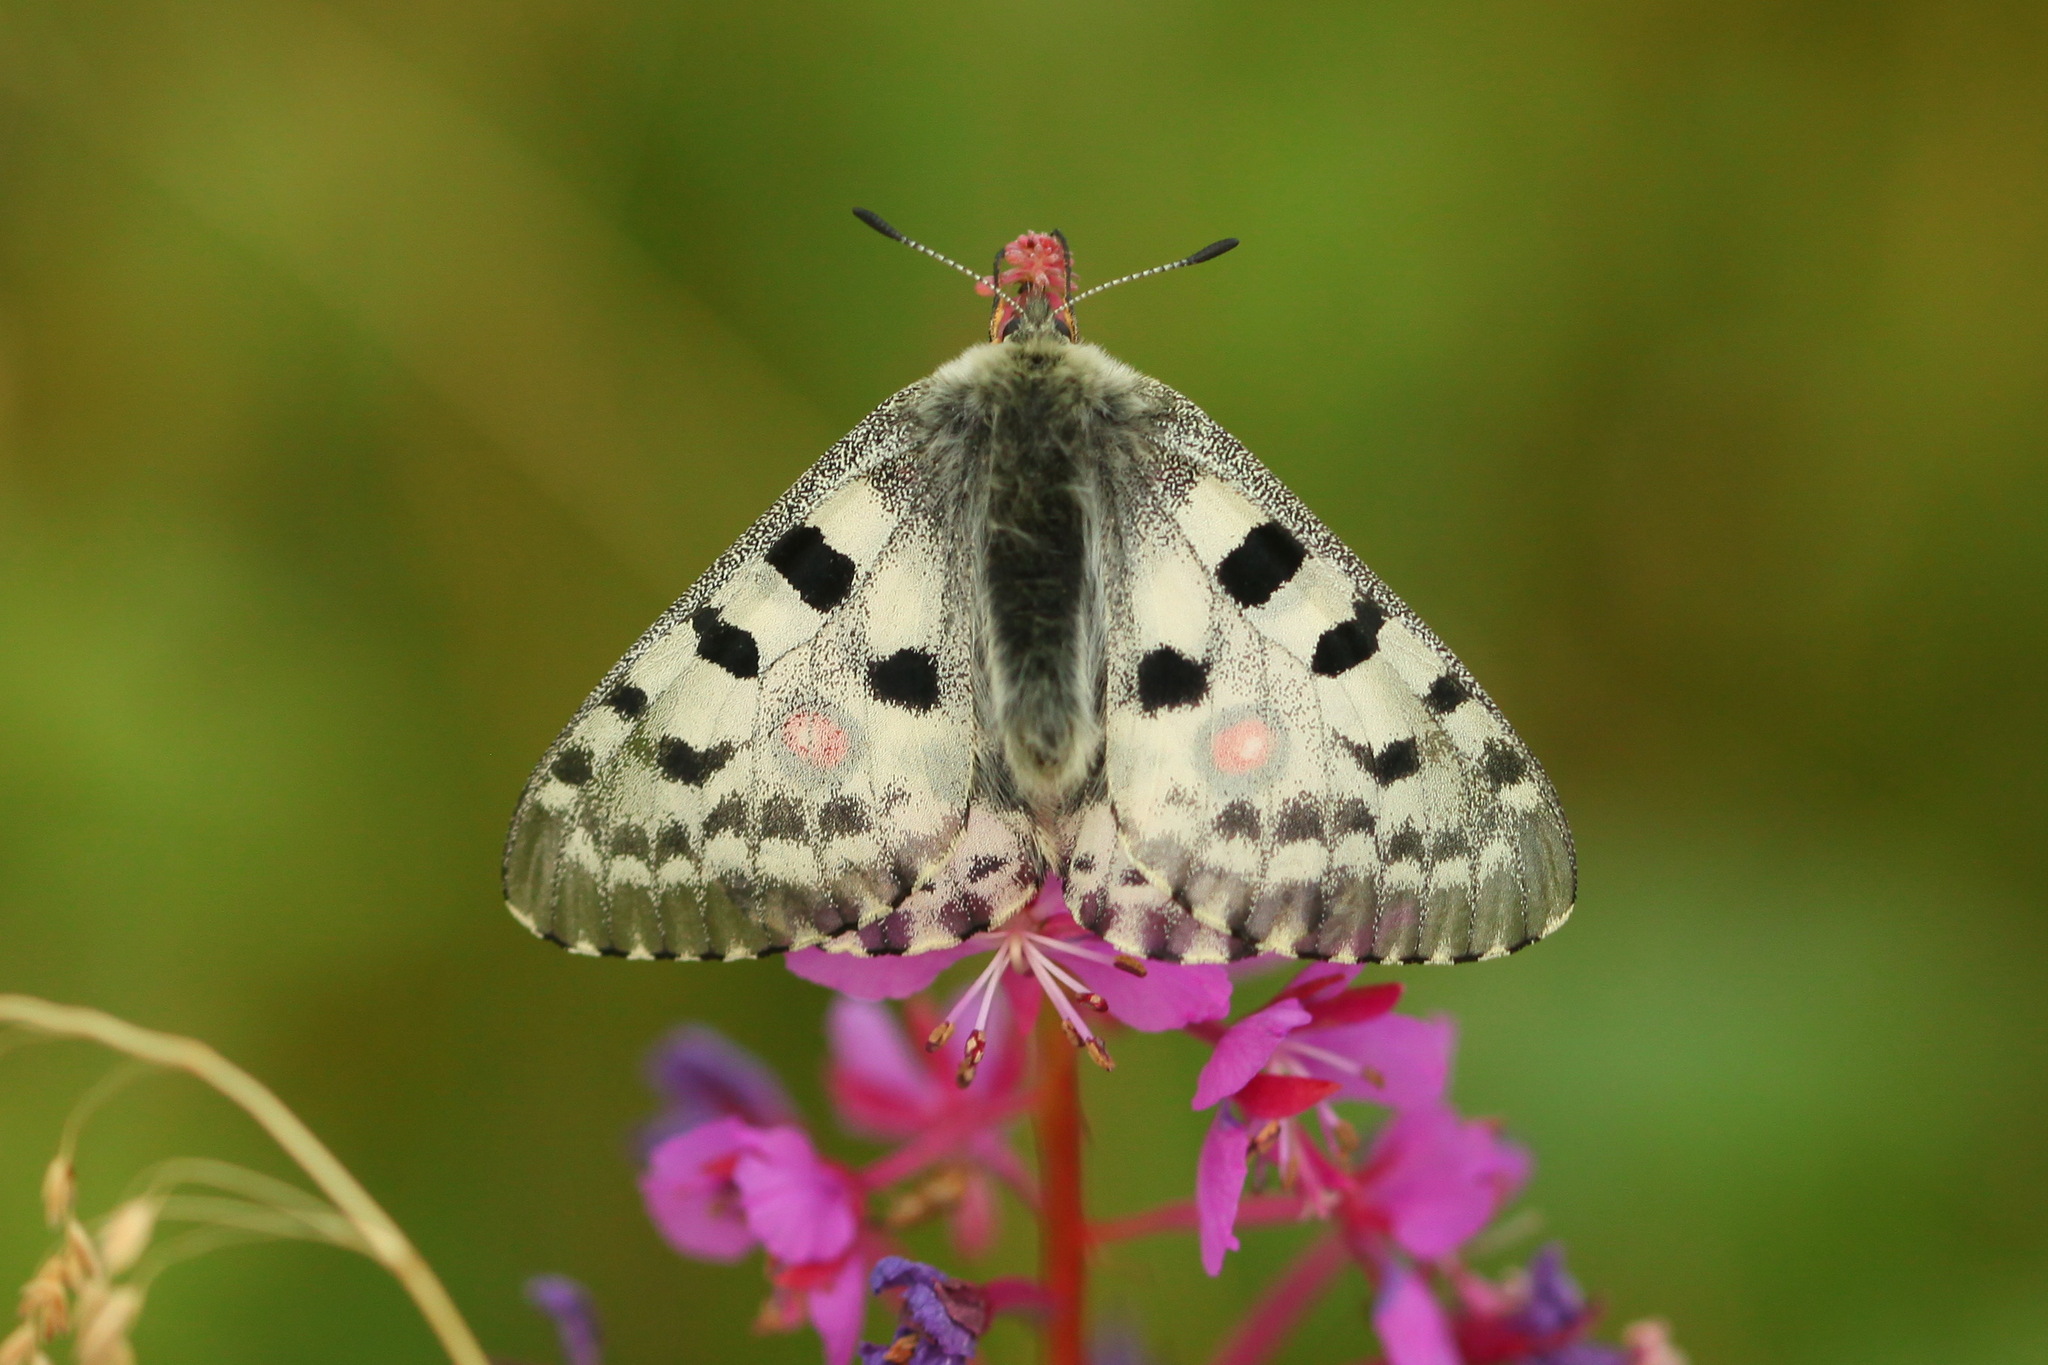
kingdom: Animalia
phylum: Arthropoda
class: Insecta
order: Lepidoptera
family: Papilionidae
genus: Parnassius
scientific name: Parnassius nomion
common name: Nomion apollo
